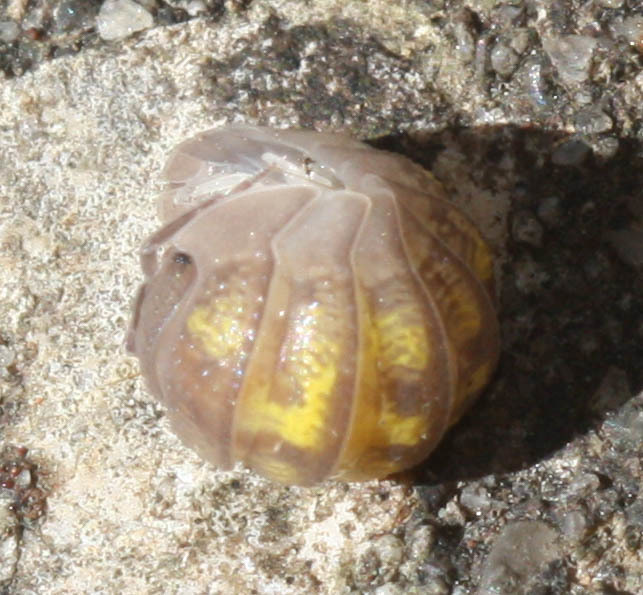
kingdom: Animalia
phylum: Arthropoda
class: Malacostraca
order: Isopoda
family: Armadillidiidae
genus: Armadillidium
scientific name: Armadillidium granulatum
